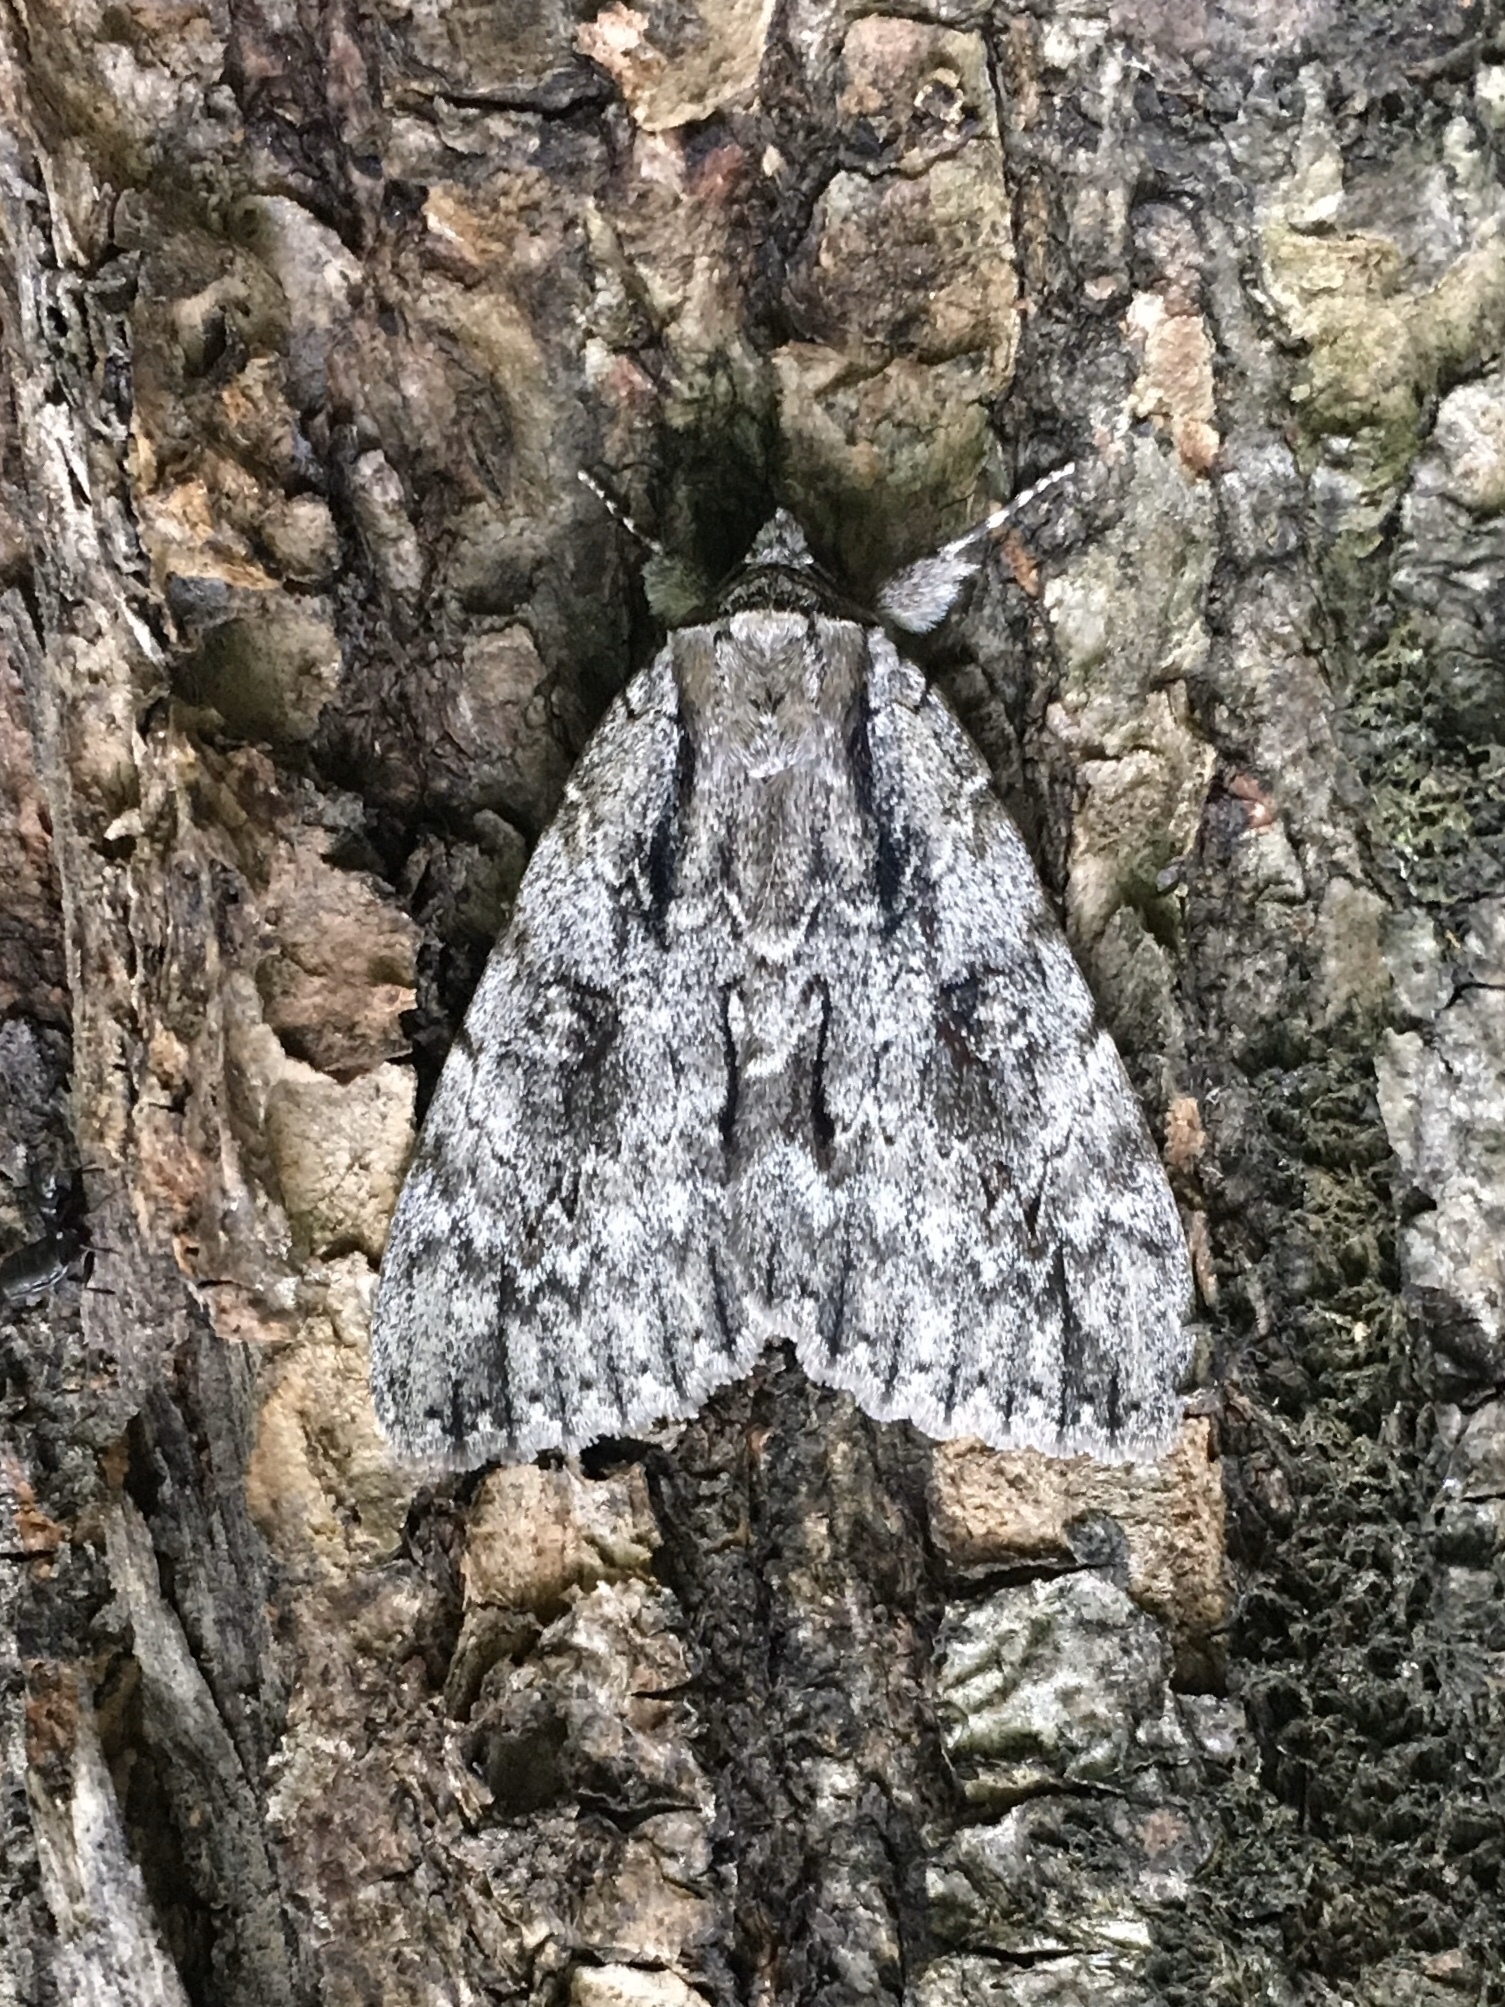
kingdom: Animalia
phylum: Arthropoda
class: Insecta
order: Lepidoptera
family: Erebidae
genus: Catocala
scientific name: Catocala habilis
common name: Habilis underwing
